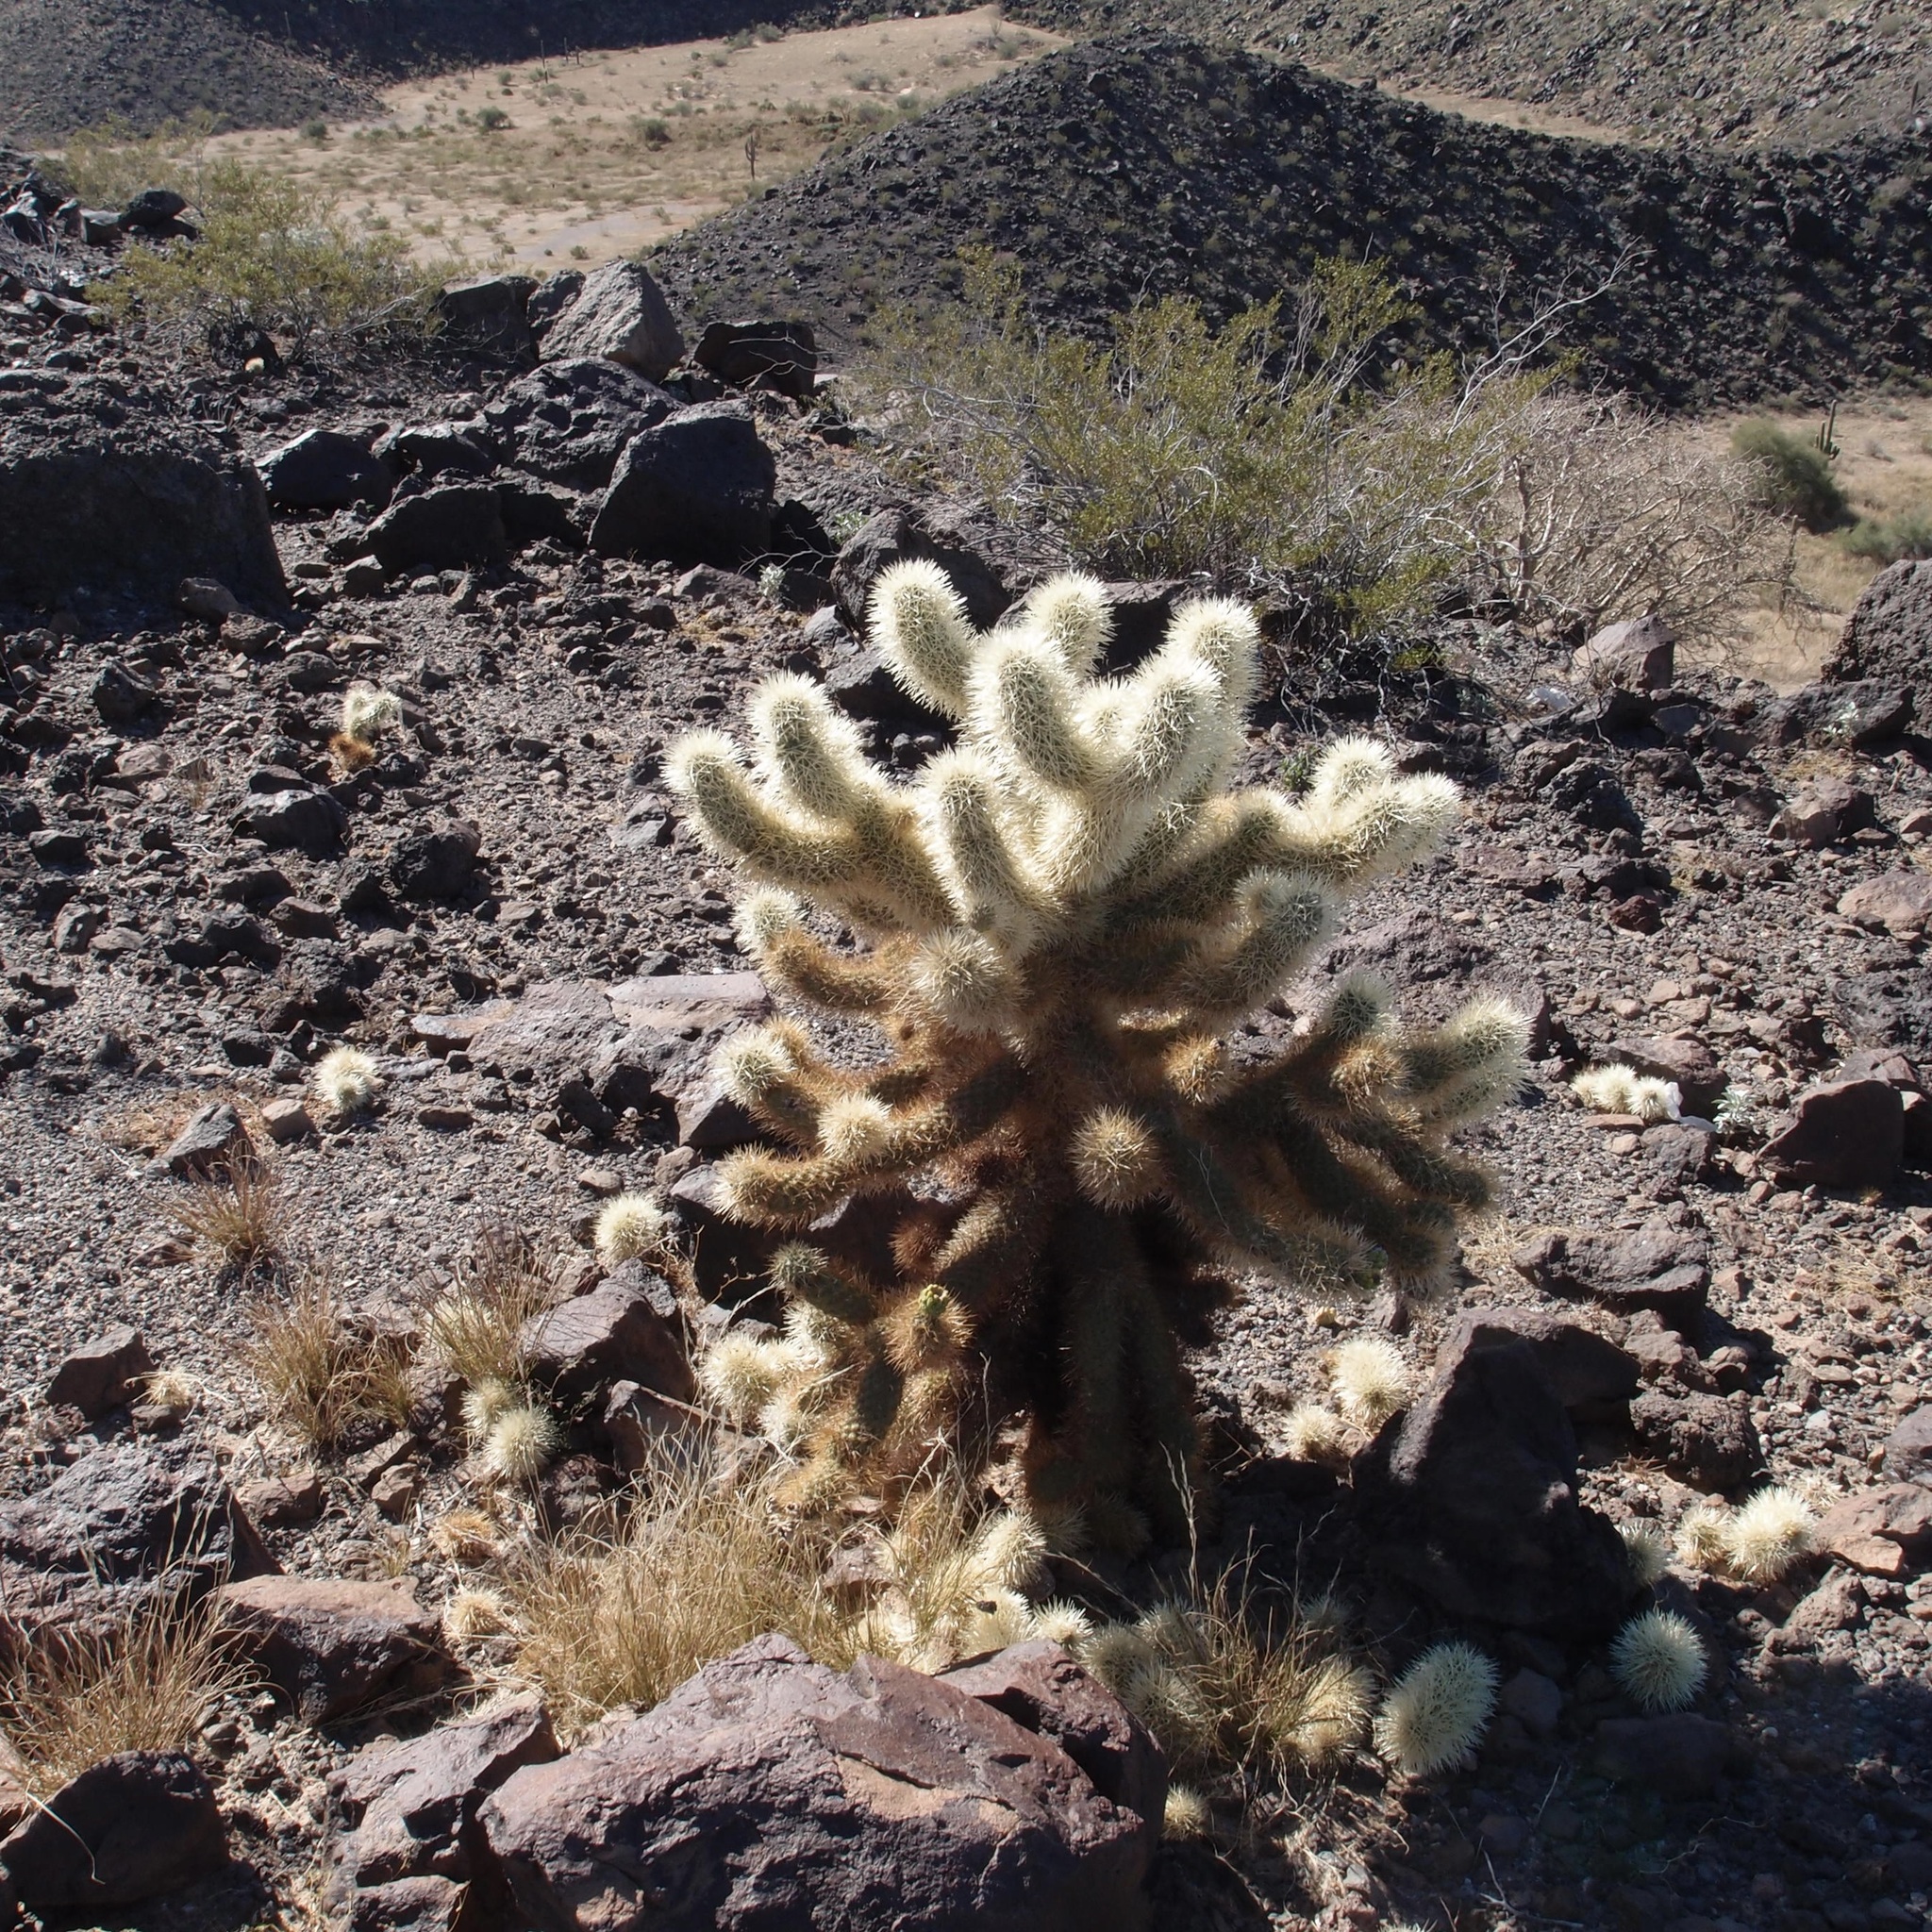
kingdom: Plantae
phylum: Tracheophyta
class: Magnoliopsida
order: Caryophyllales
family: Cactaceae
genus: Cylindropuntia
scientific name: Cylindropuntia fosbergii
